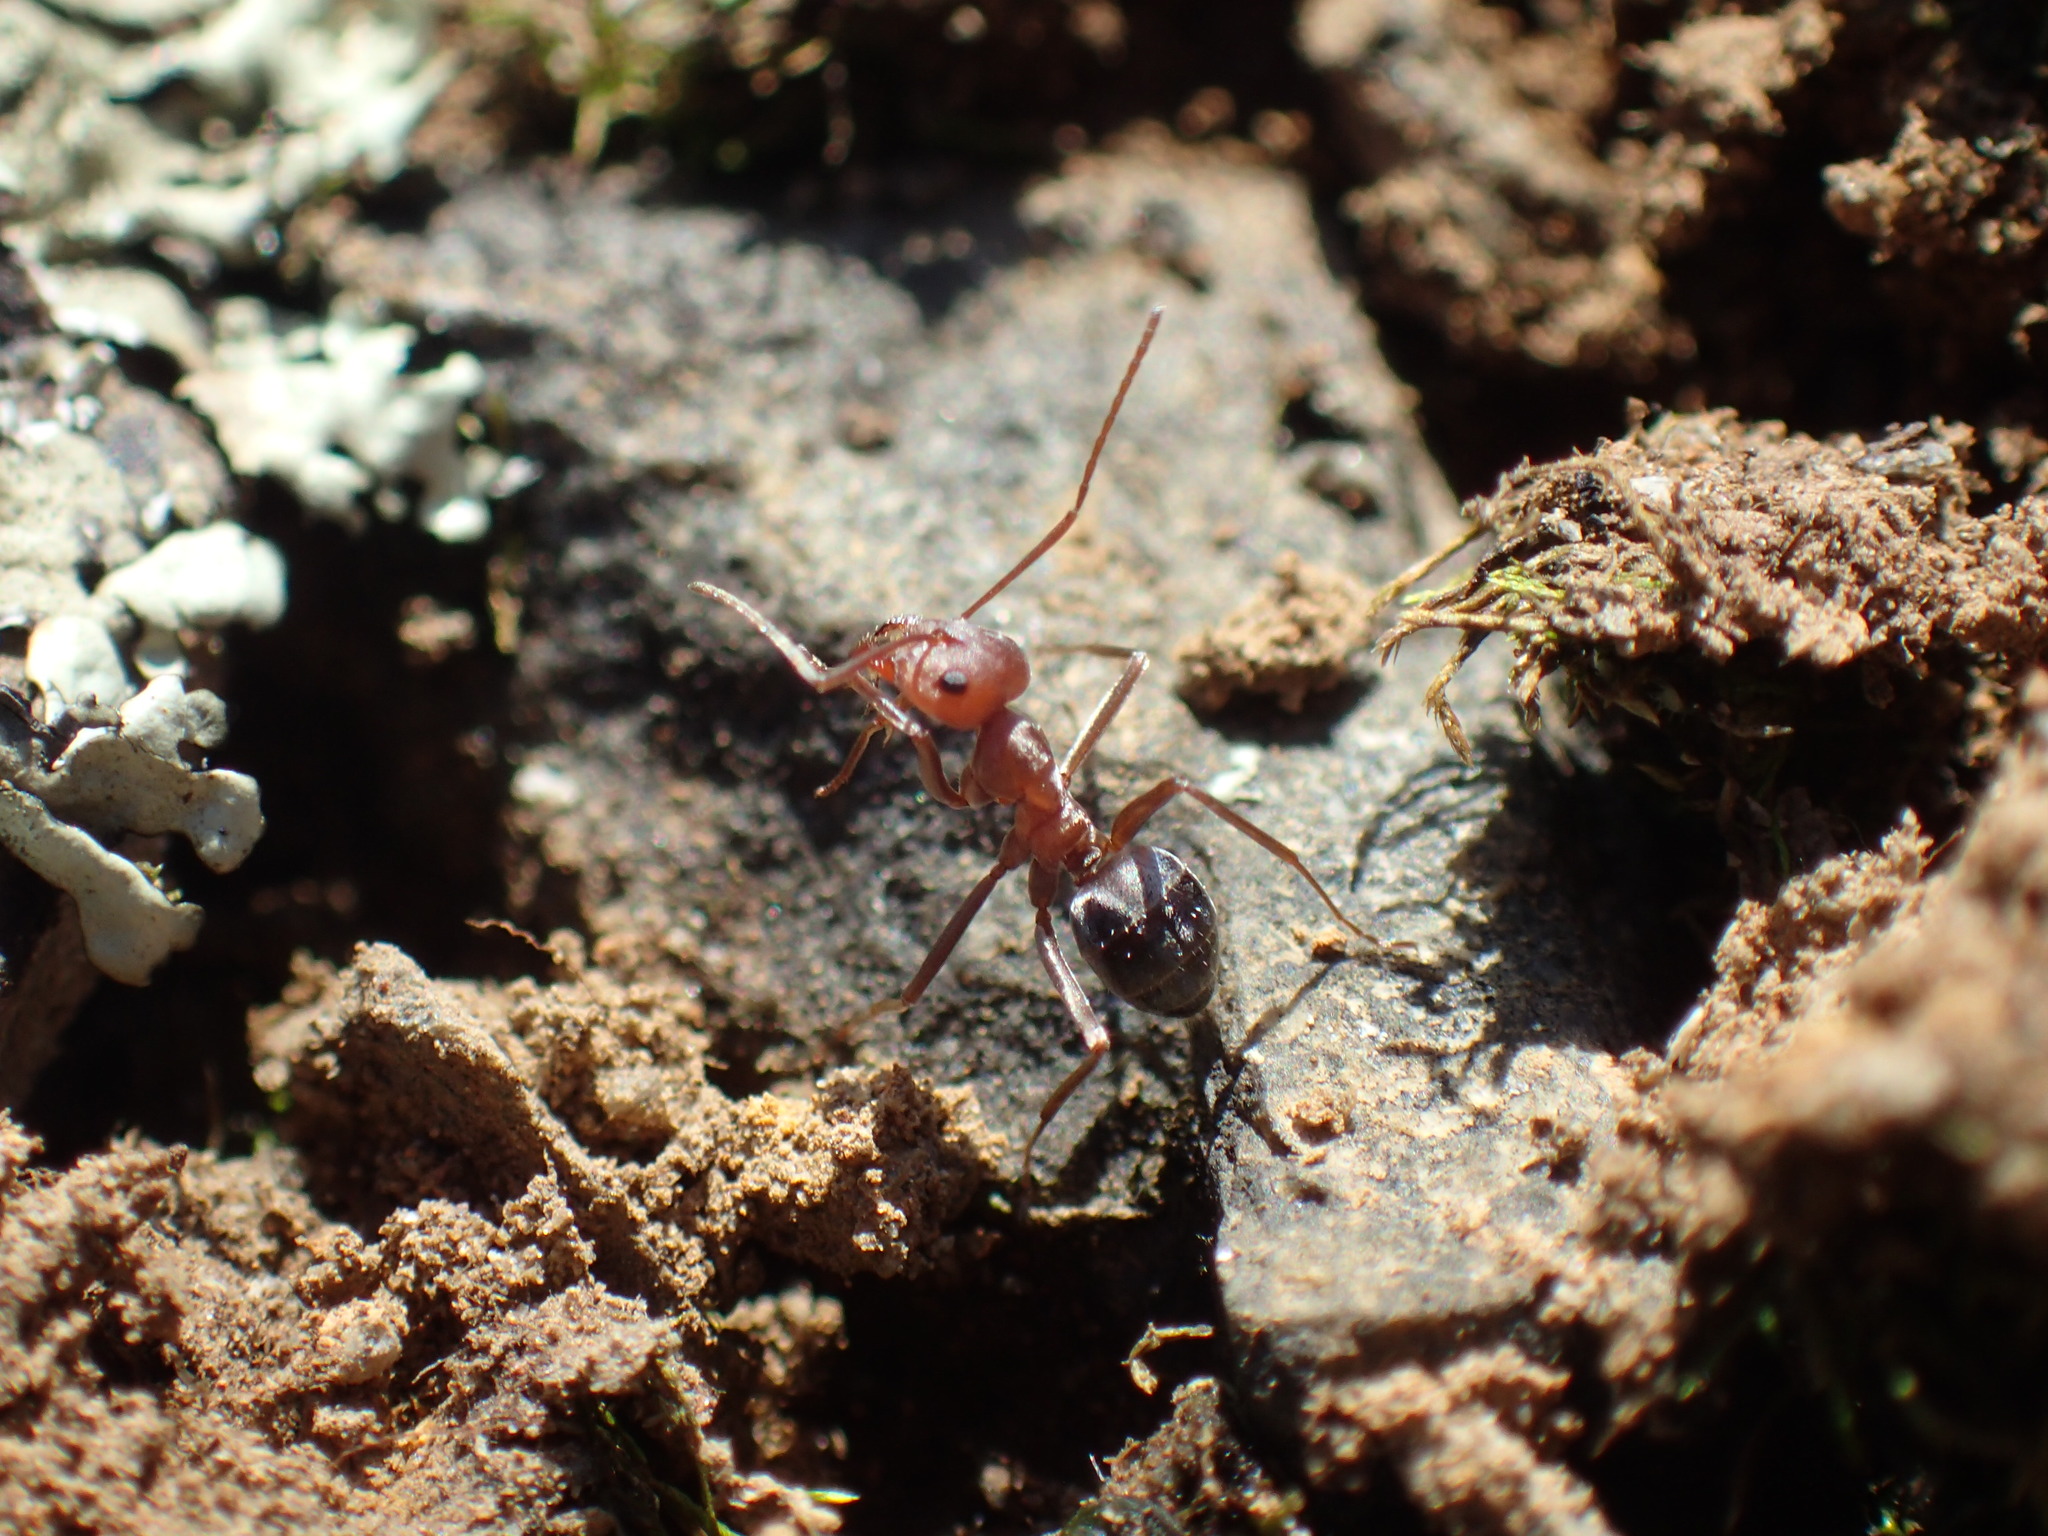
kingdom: Animalia
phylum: Arthropoda
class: Insecta
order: Hymenoptera
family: Formicidae
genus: Anoplolepis
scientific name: Anoplolepis custodiens
